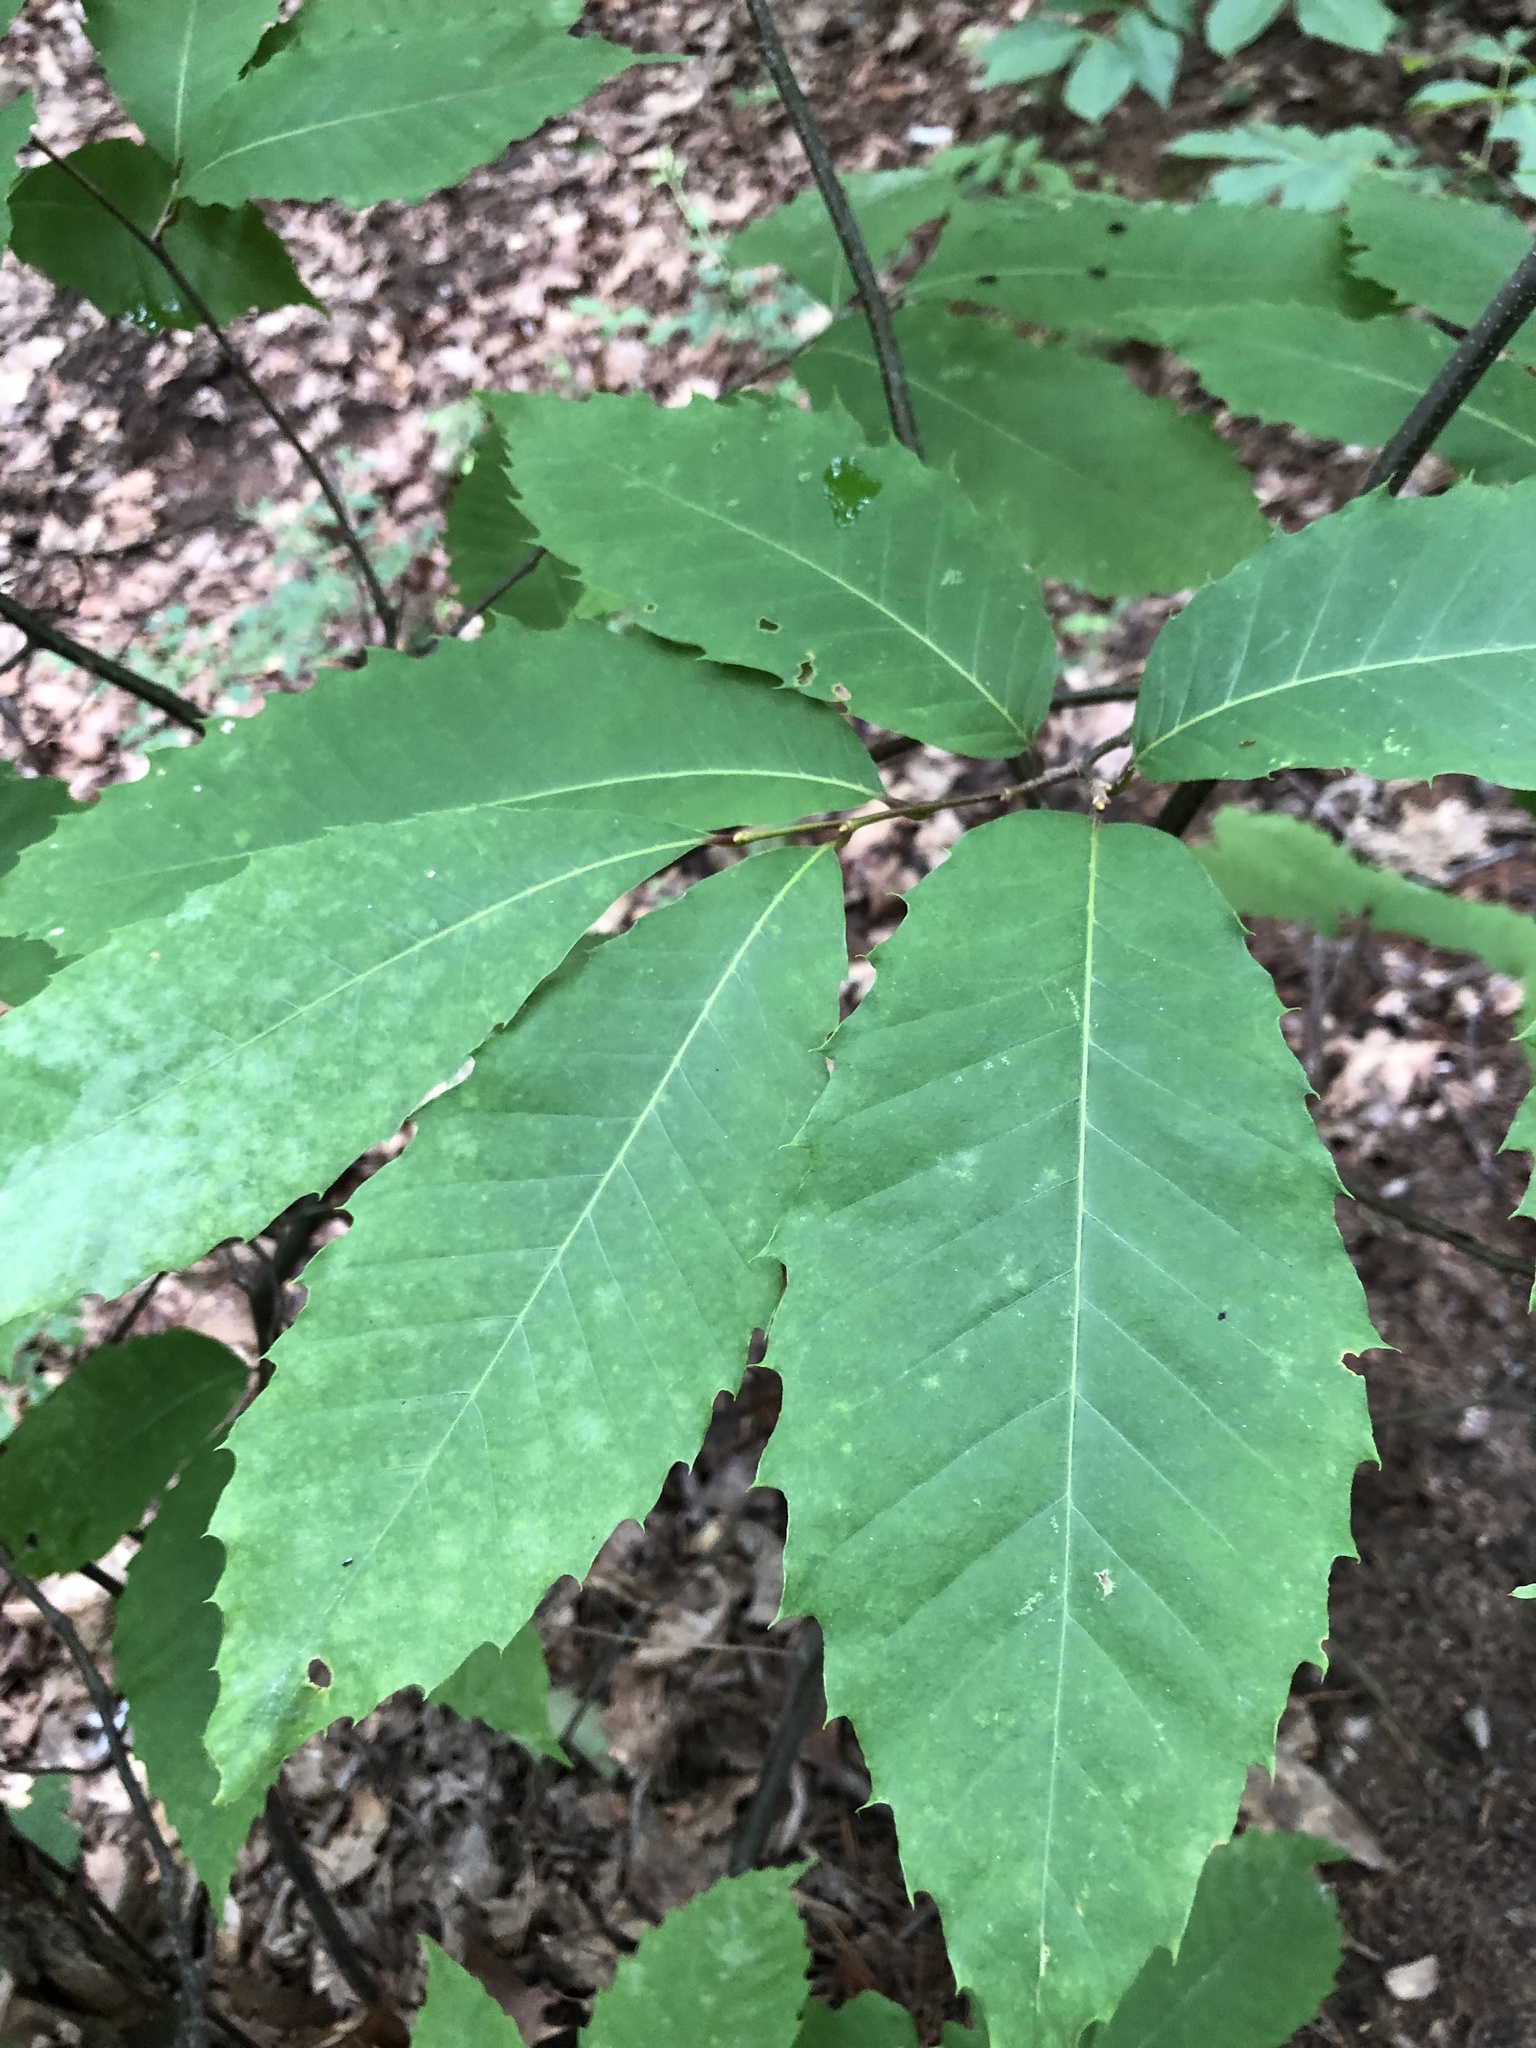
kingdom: Plantae
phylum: Tracheophyta
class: Magnoliopsida
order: Fagales
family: Fagaceae
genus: Castanea
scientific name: Castanea dentata
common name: American chestnut
